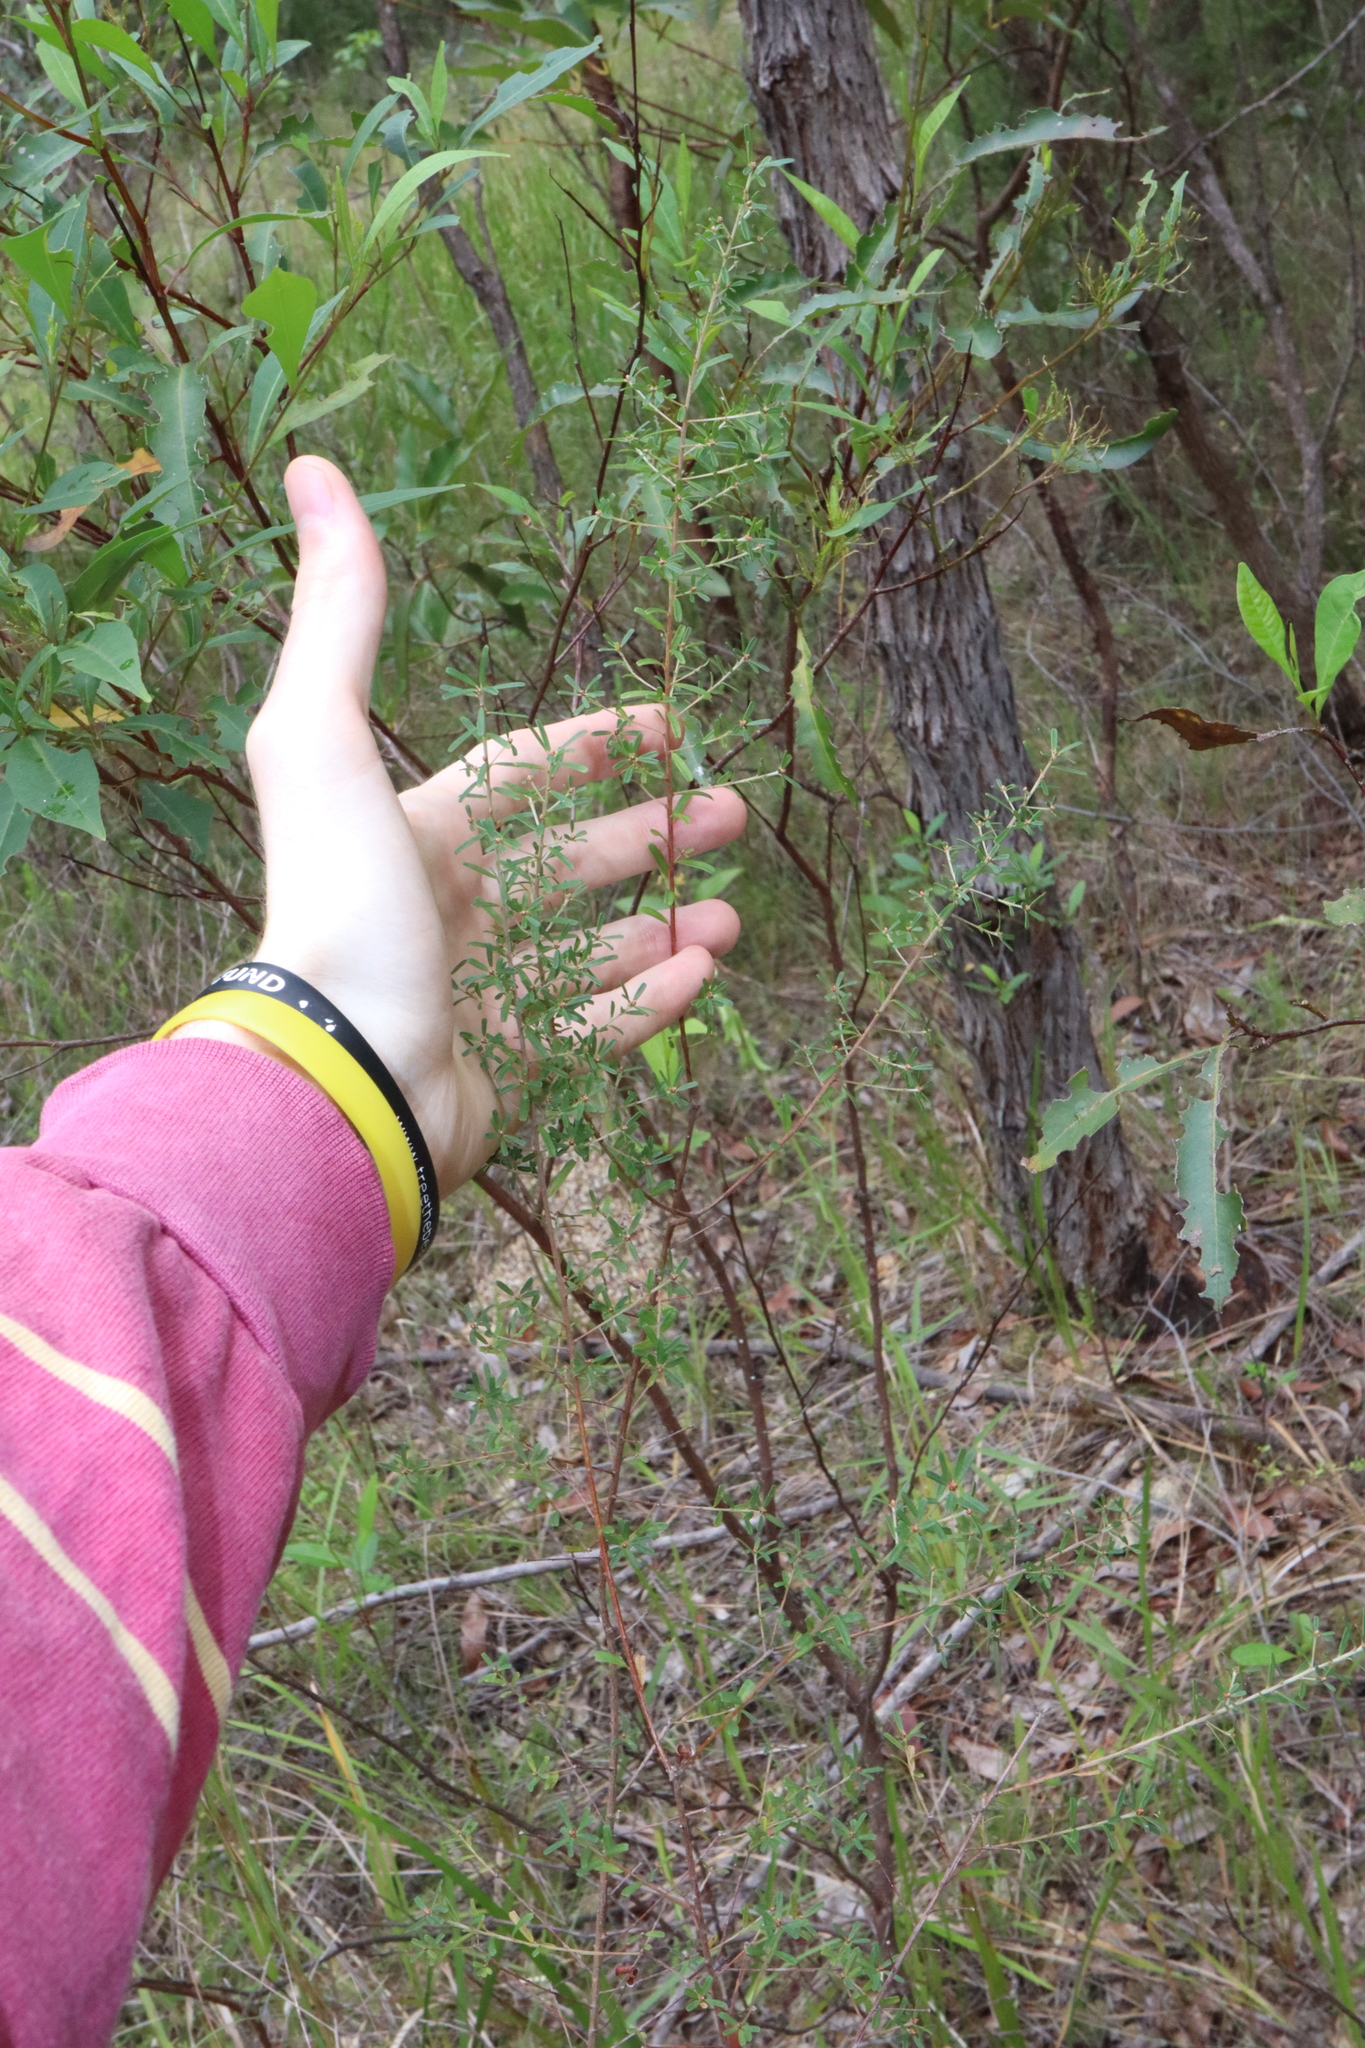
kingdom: Plantae
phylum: Tracheophyta
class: Magnoliopsida
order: Fabales
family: Fabaceae
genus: Pultenaea
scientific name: Pultenaea retusa
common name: Blunt bush-pea
